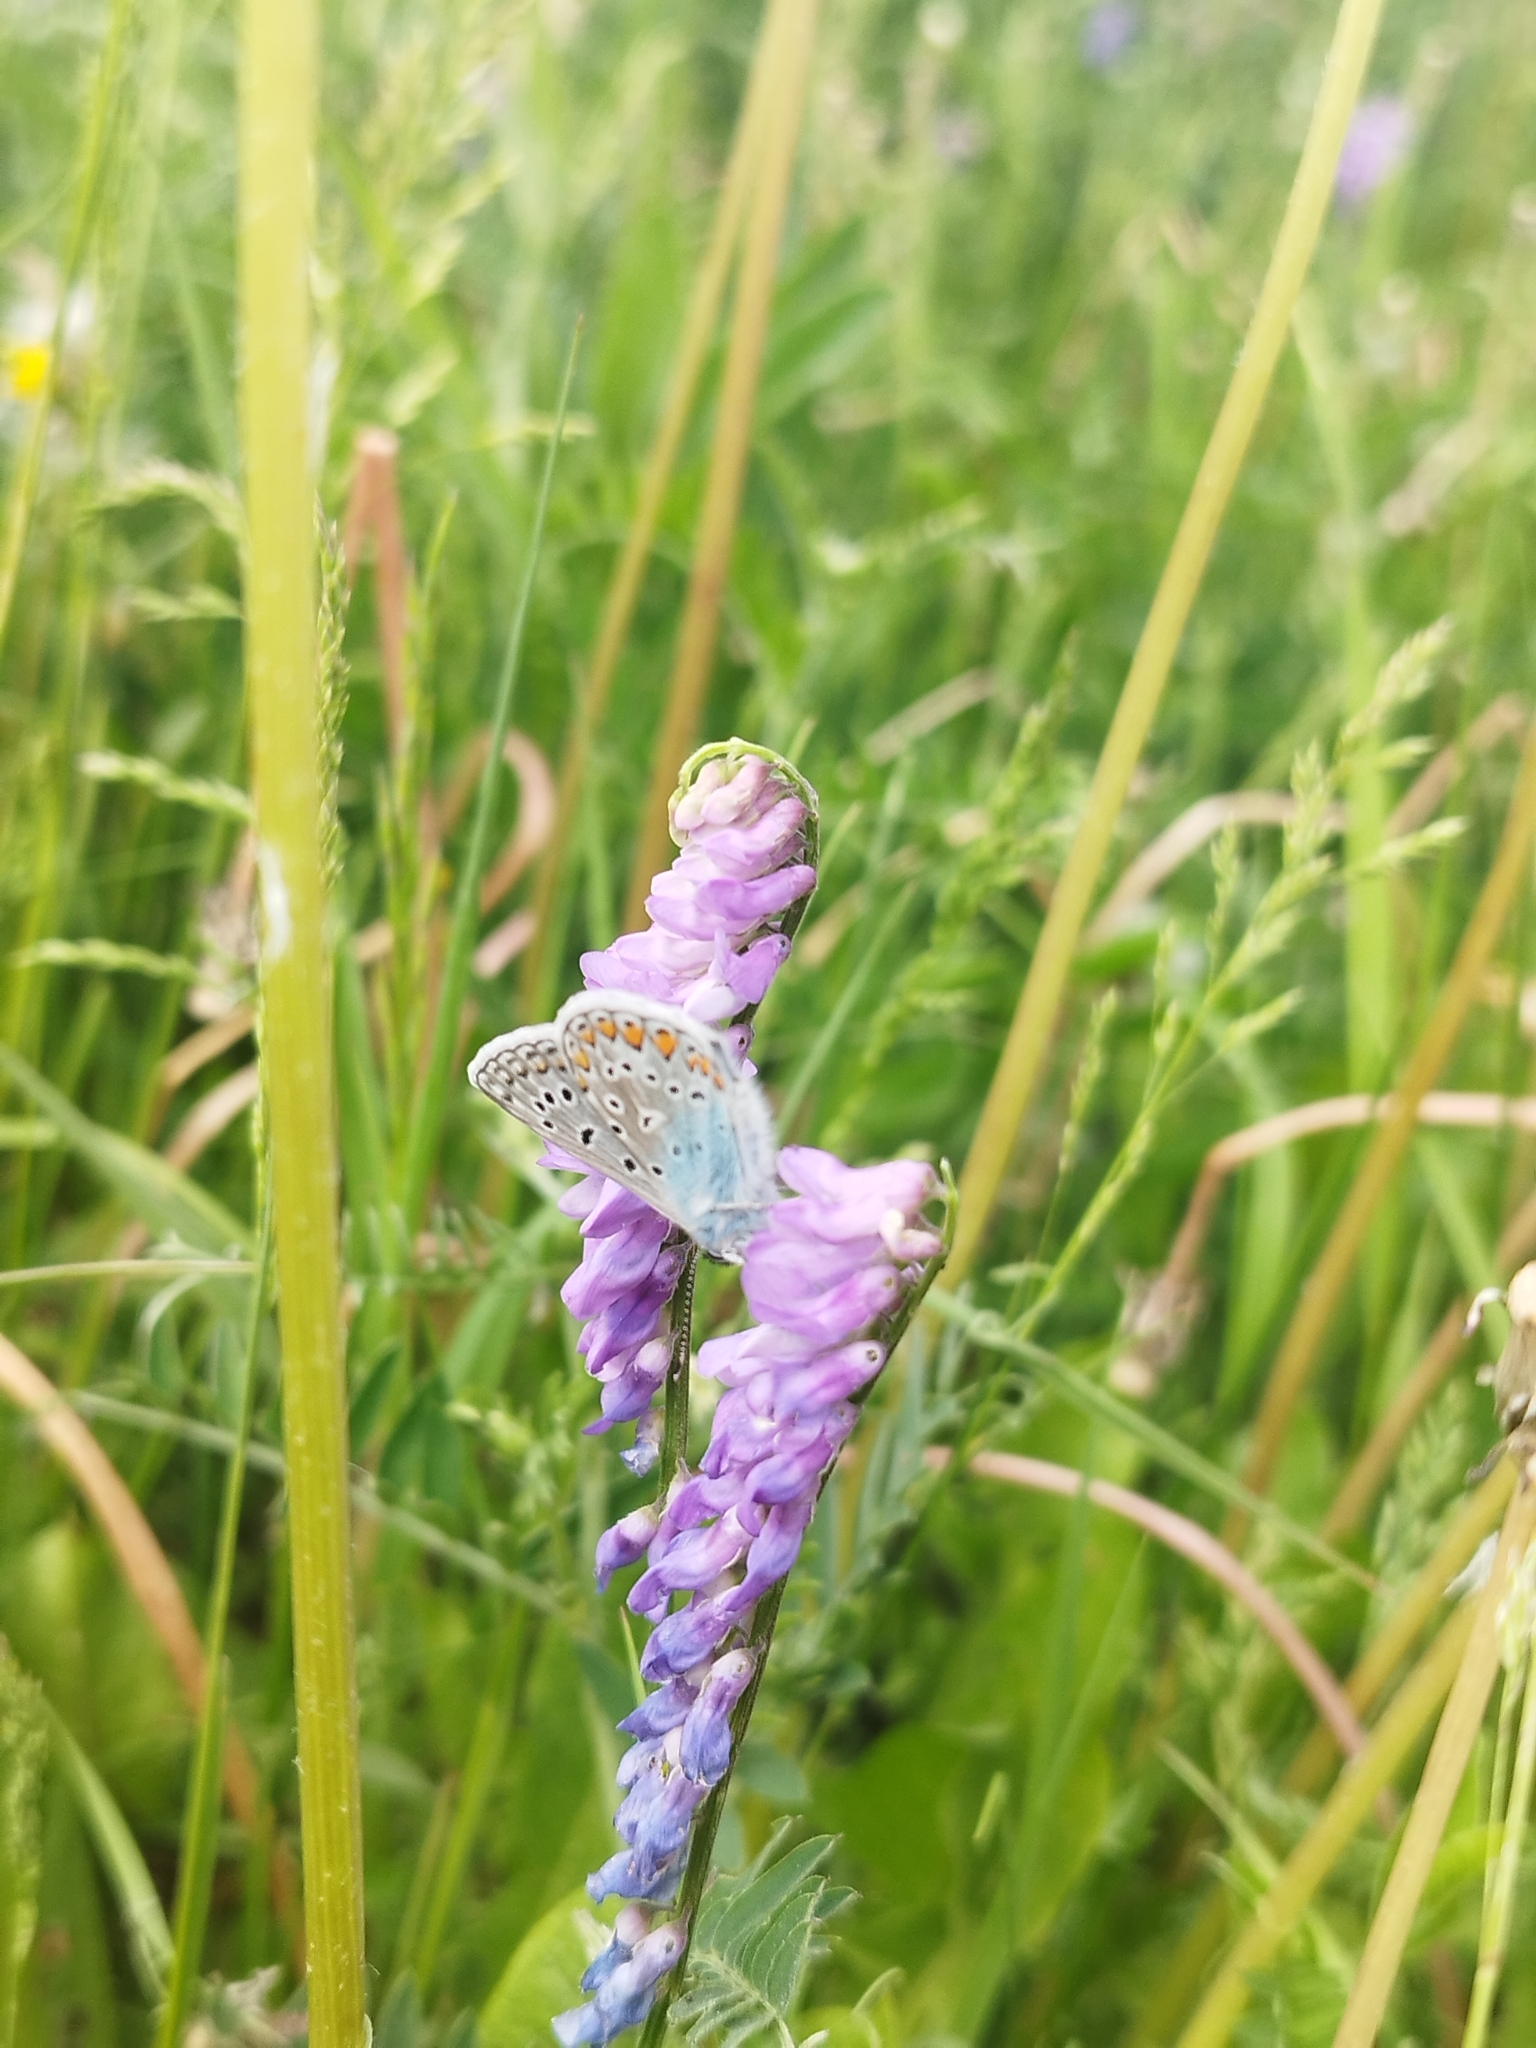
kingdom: Animalia
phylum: Arthropoda
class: Insecta
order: Lepidoptera
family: Lycaenidae
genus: Polyommatus
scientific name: Polyommatus icarus
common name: Common blue
